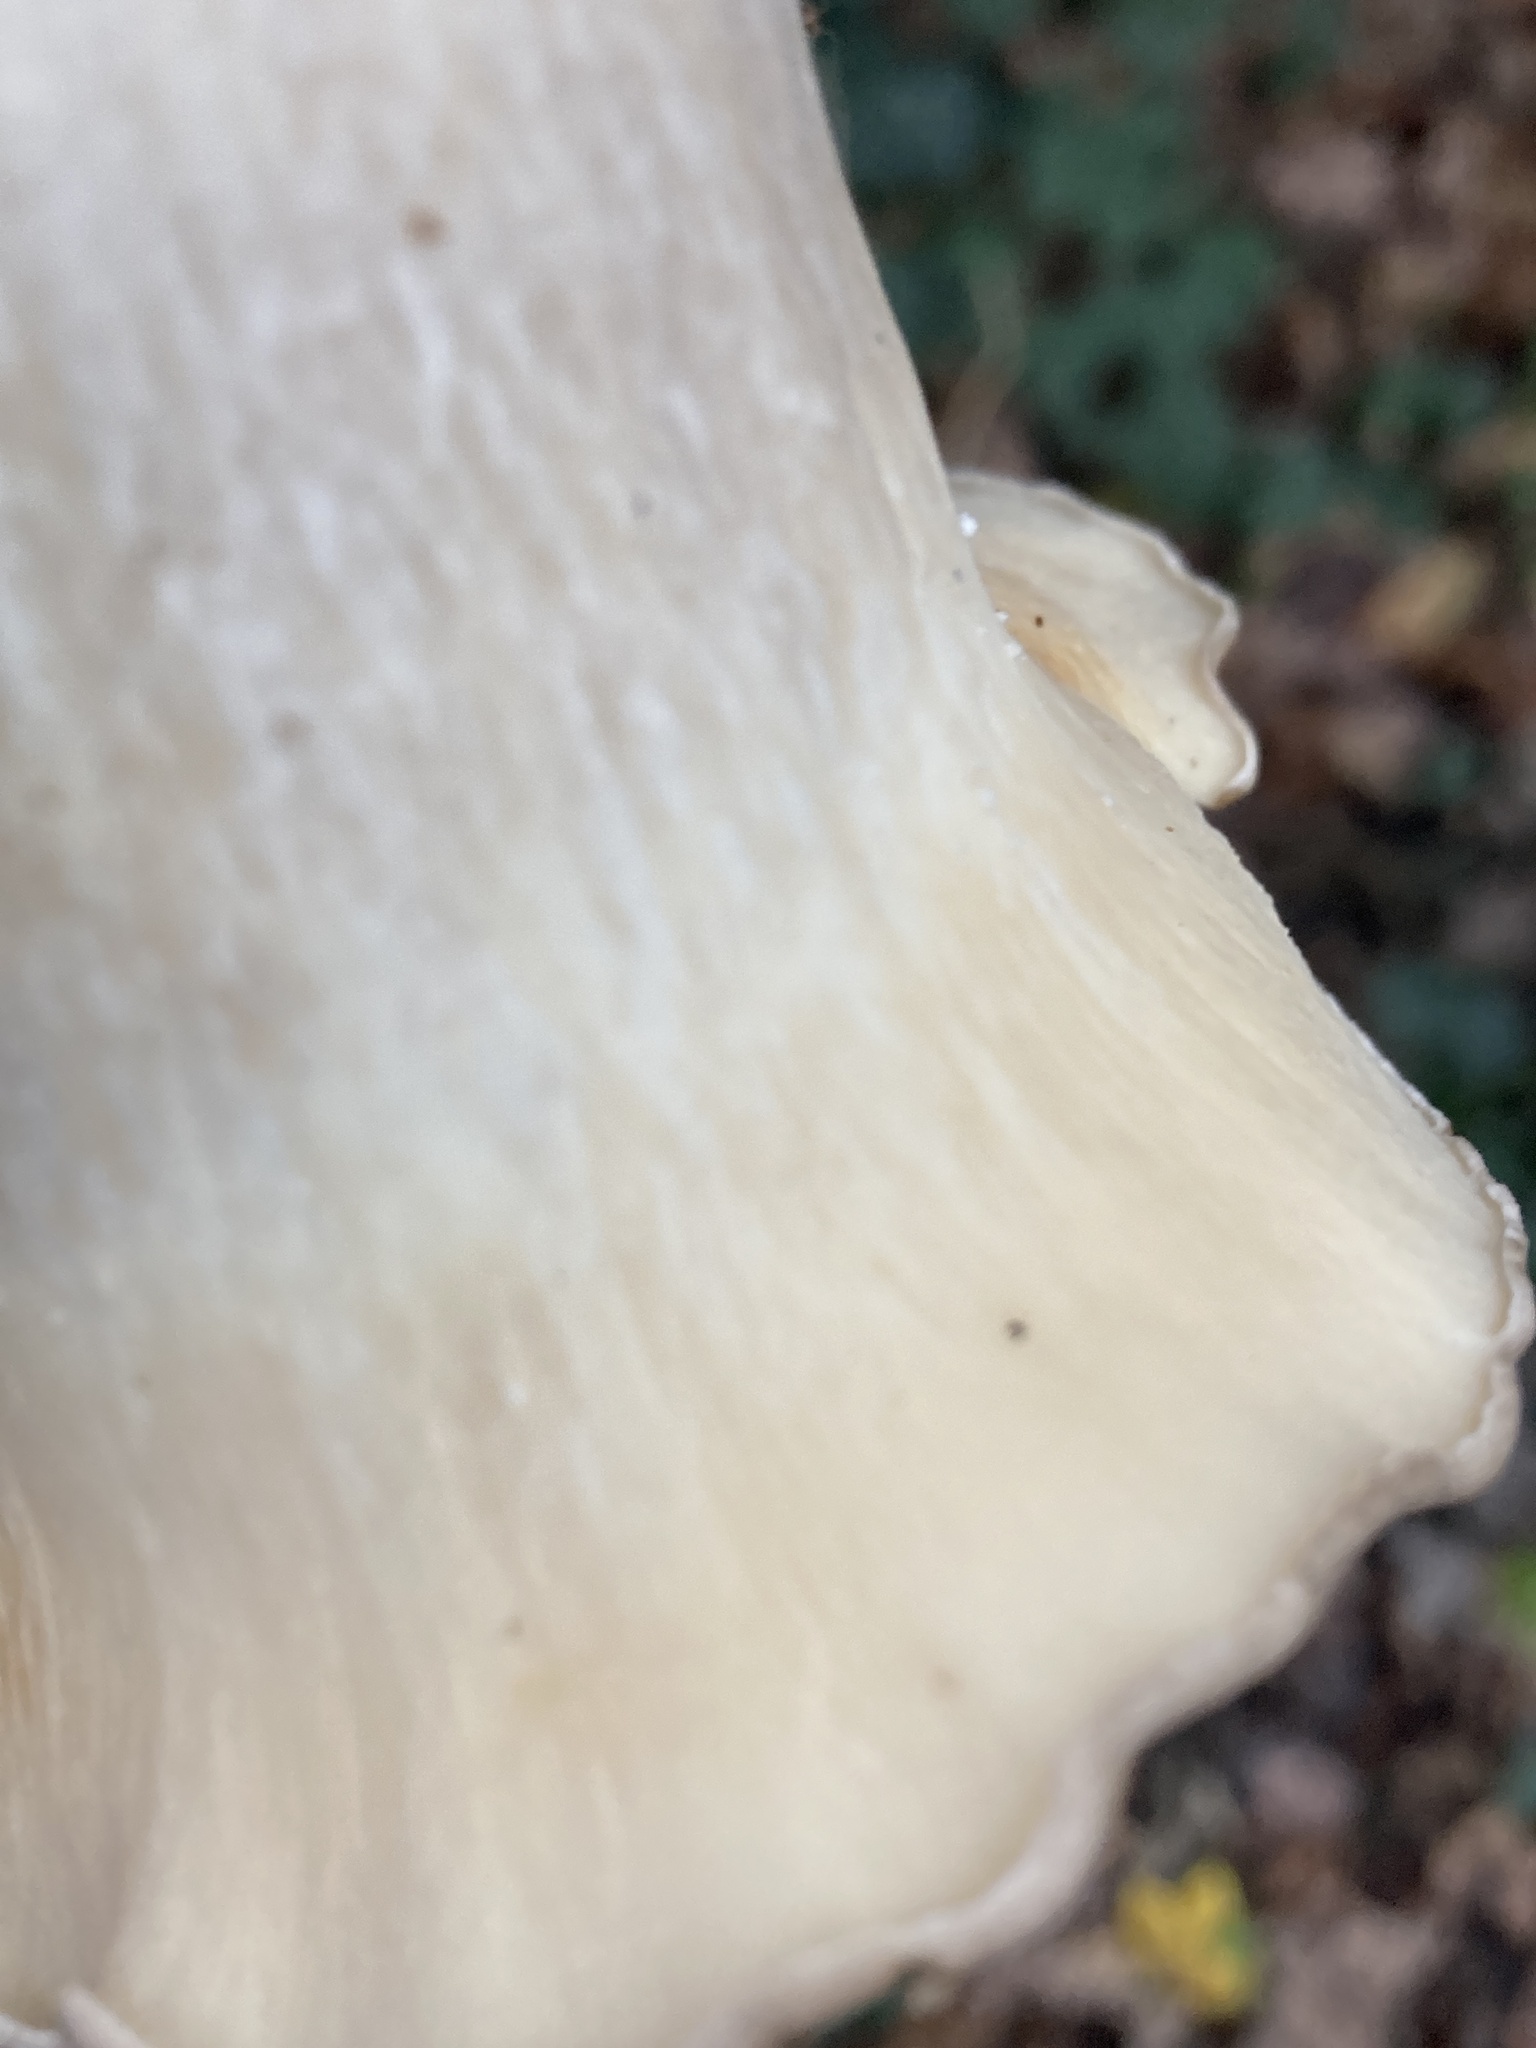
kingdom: Fungi
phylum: Basidiomycota
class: Agaricomycetes
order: Agaricales
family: Tricholomataceae
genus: Infundibulicybe
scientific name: Infundibulicybe geotropa
